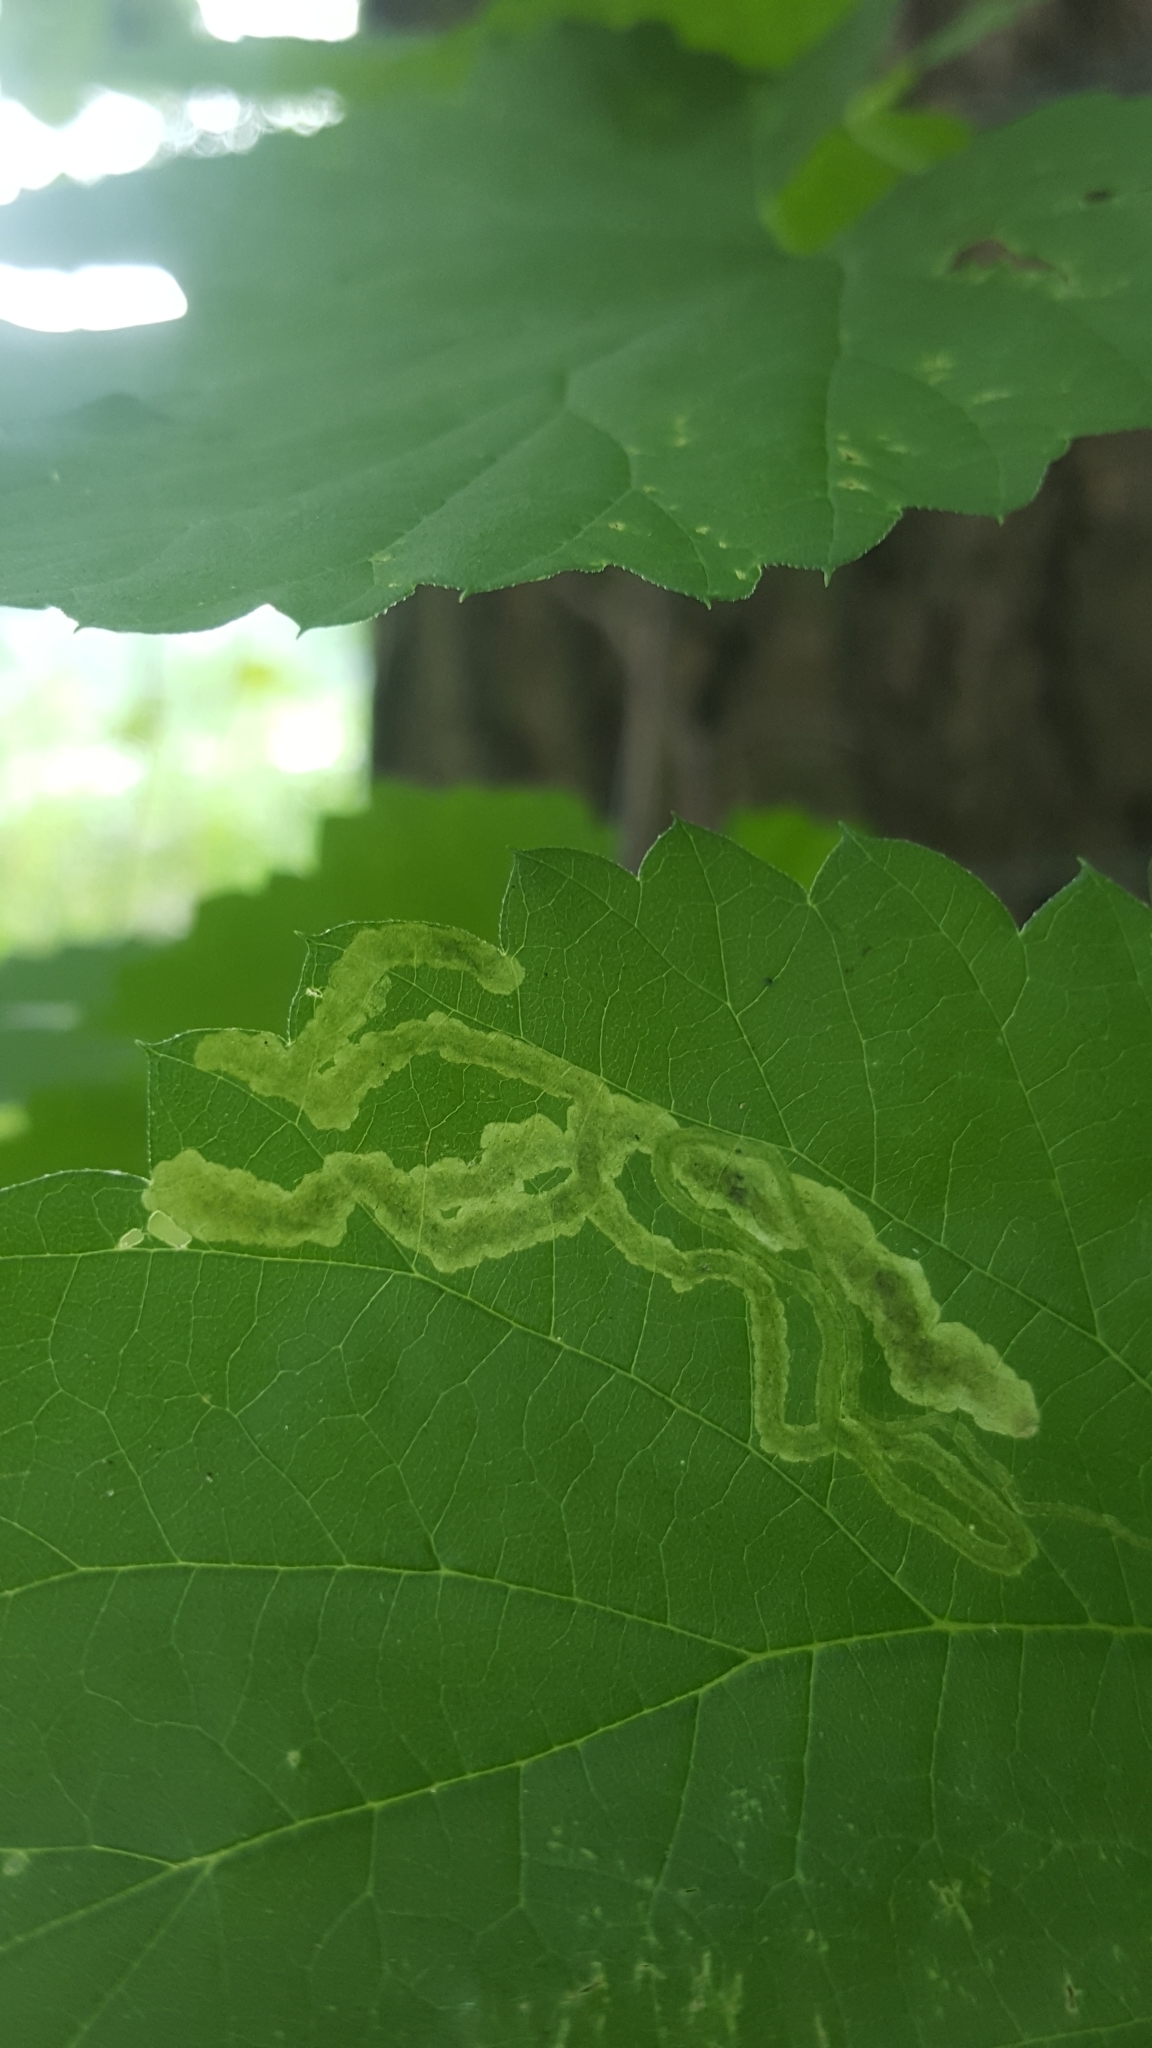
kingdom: Animalia
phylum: Arthropoda
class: Insecta
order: Diptera
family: Agromyzidae
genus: Agromyza
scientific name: Agromyza flaviceps
